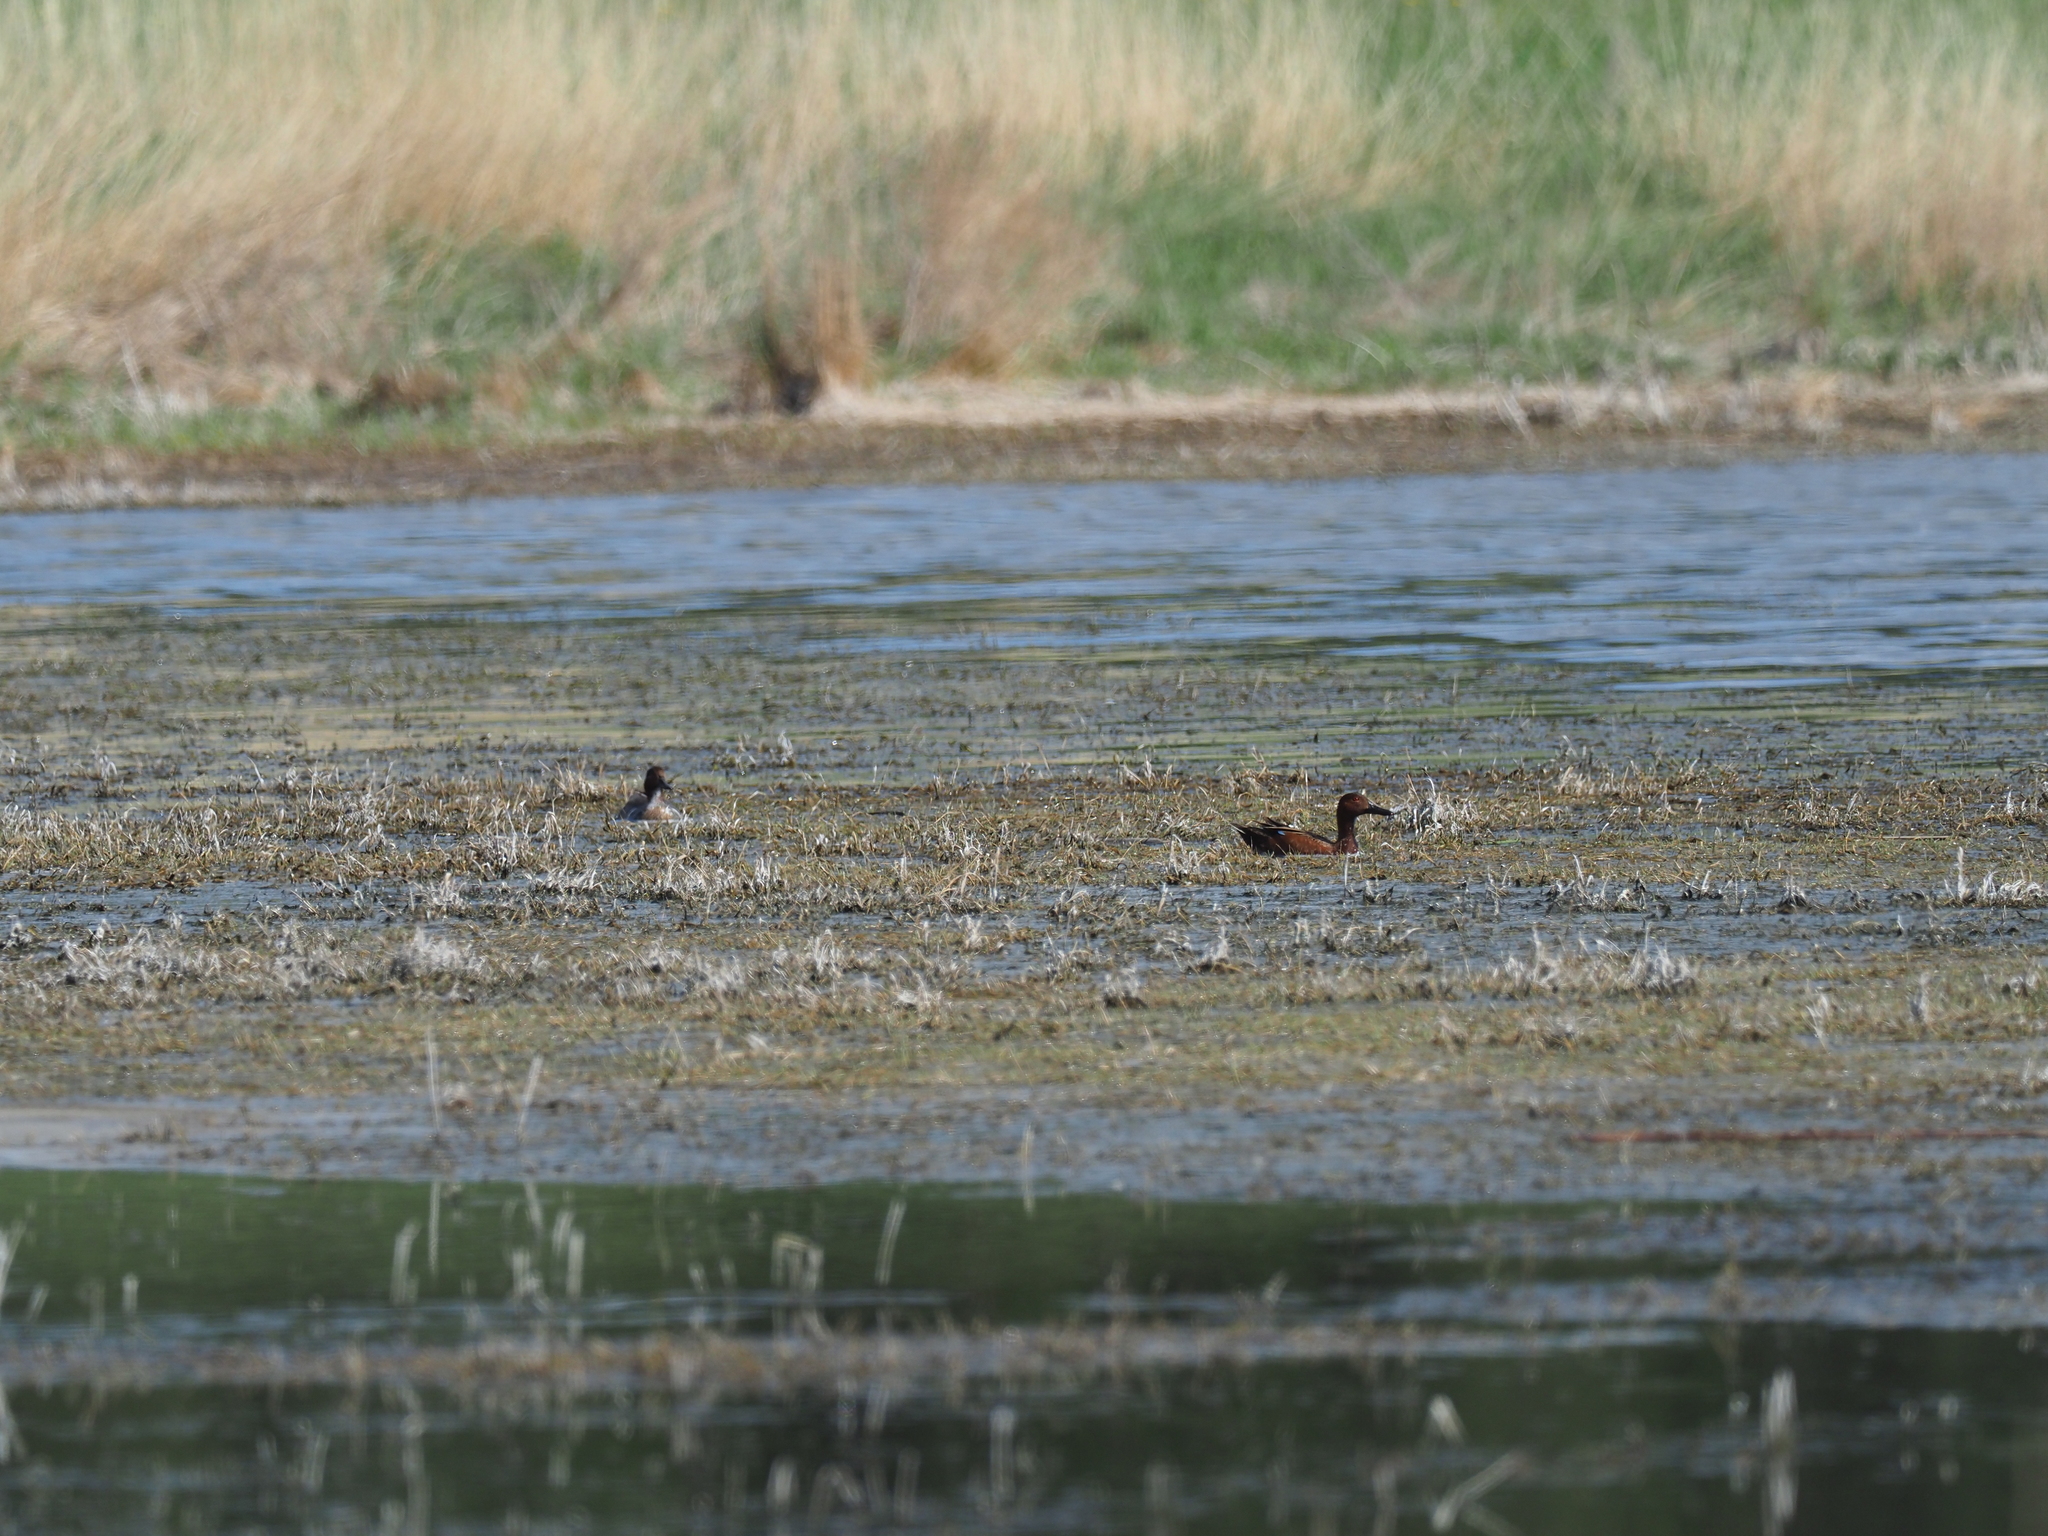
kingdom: Animalia
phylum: Chordata
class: Aves
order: Anseriformes
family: Anatidae
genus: Spatula
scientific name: Spatula cyanoptera
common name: Cinnamon teal
